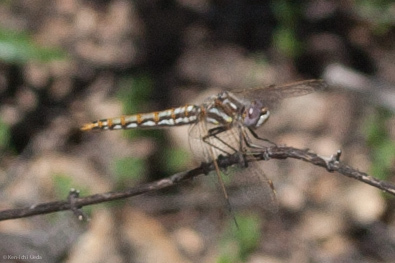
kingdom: Animalia
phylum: Arthropoda
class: Insecta
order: Odonata
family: Libellulidae
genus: Sympetrum
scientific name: Sympetrum corruptum
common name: Variegated meadowhawk
